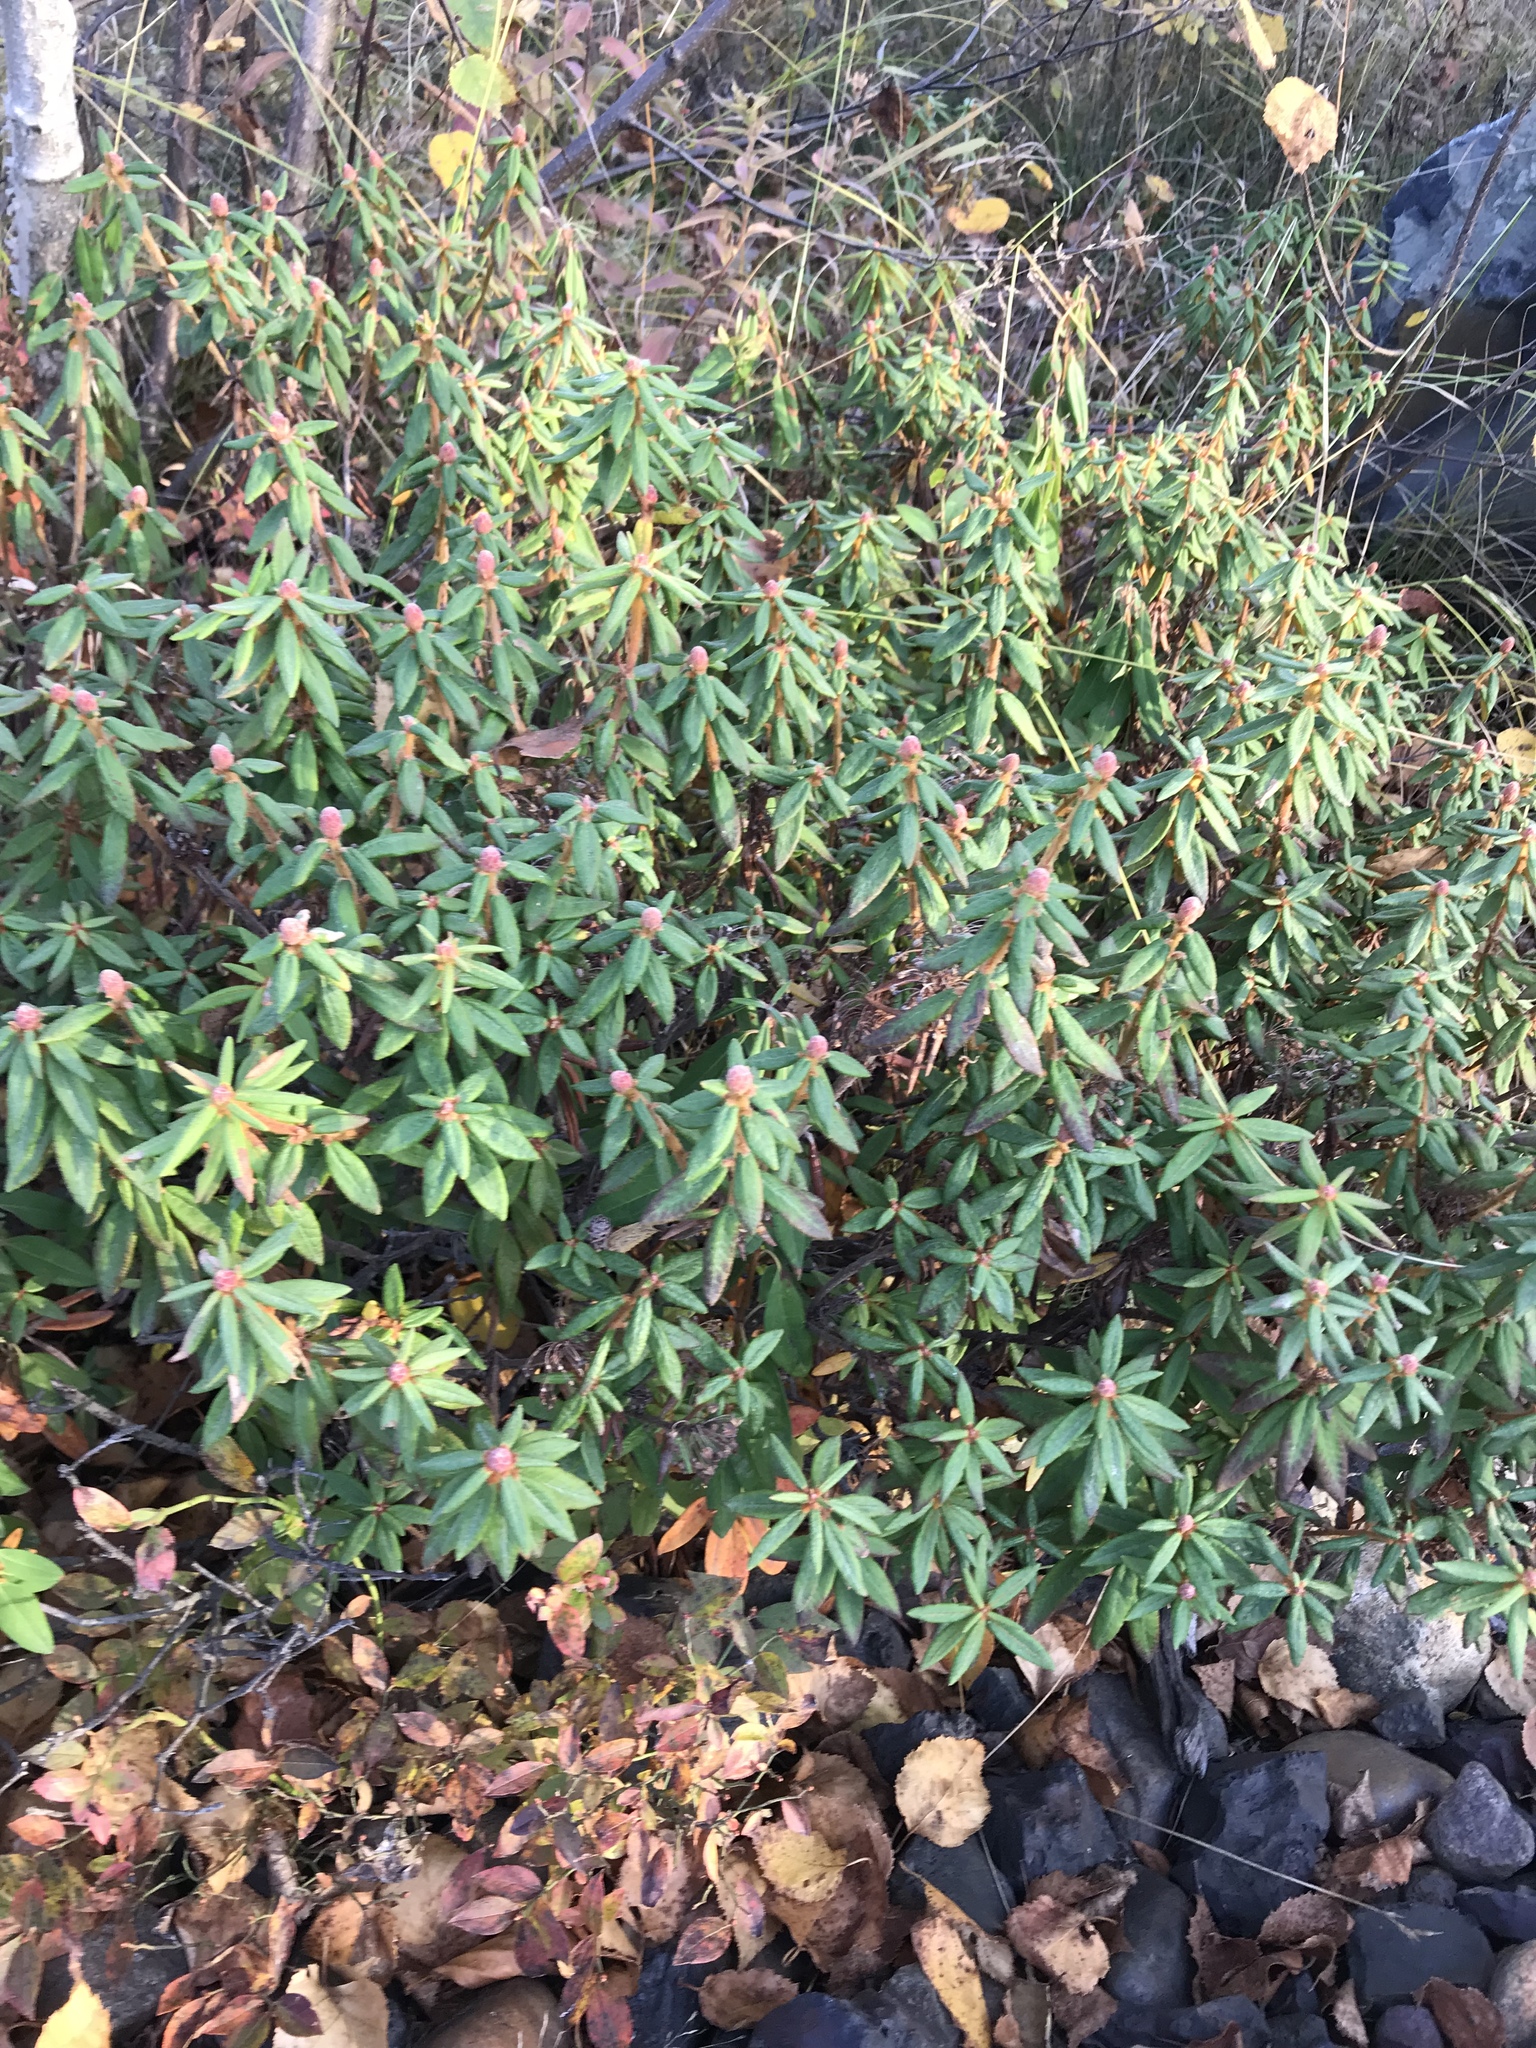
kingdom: Plantae
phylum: Tracheophyta
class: Magnoliopsida
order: Ericales
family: Ericaceae
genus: Rhododendron
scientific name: Rhododendron groenlandicum
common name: Bog labrador tea
